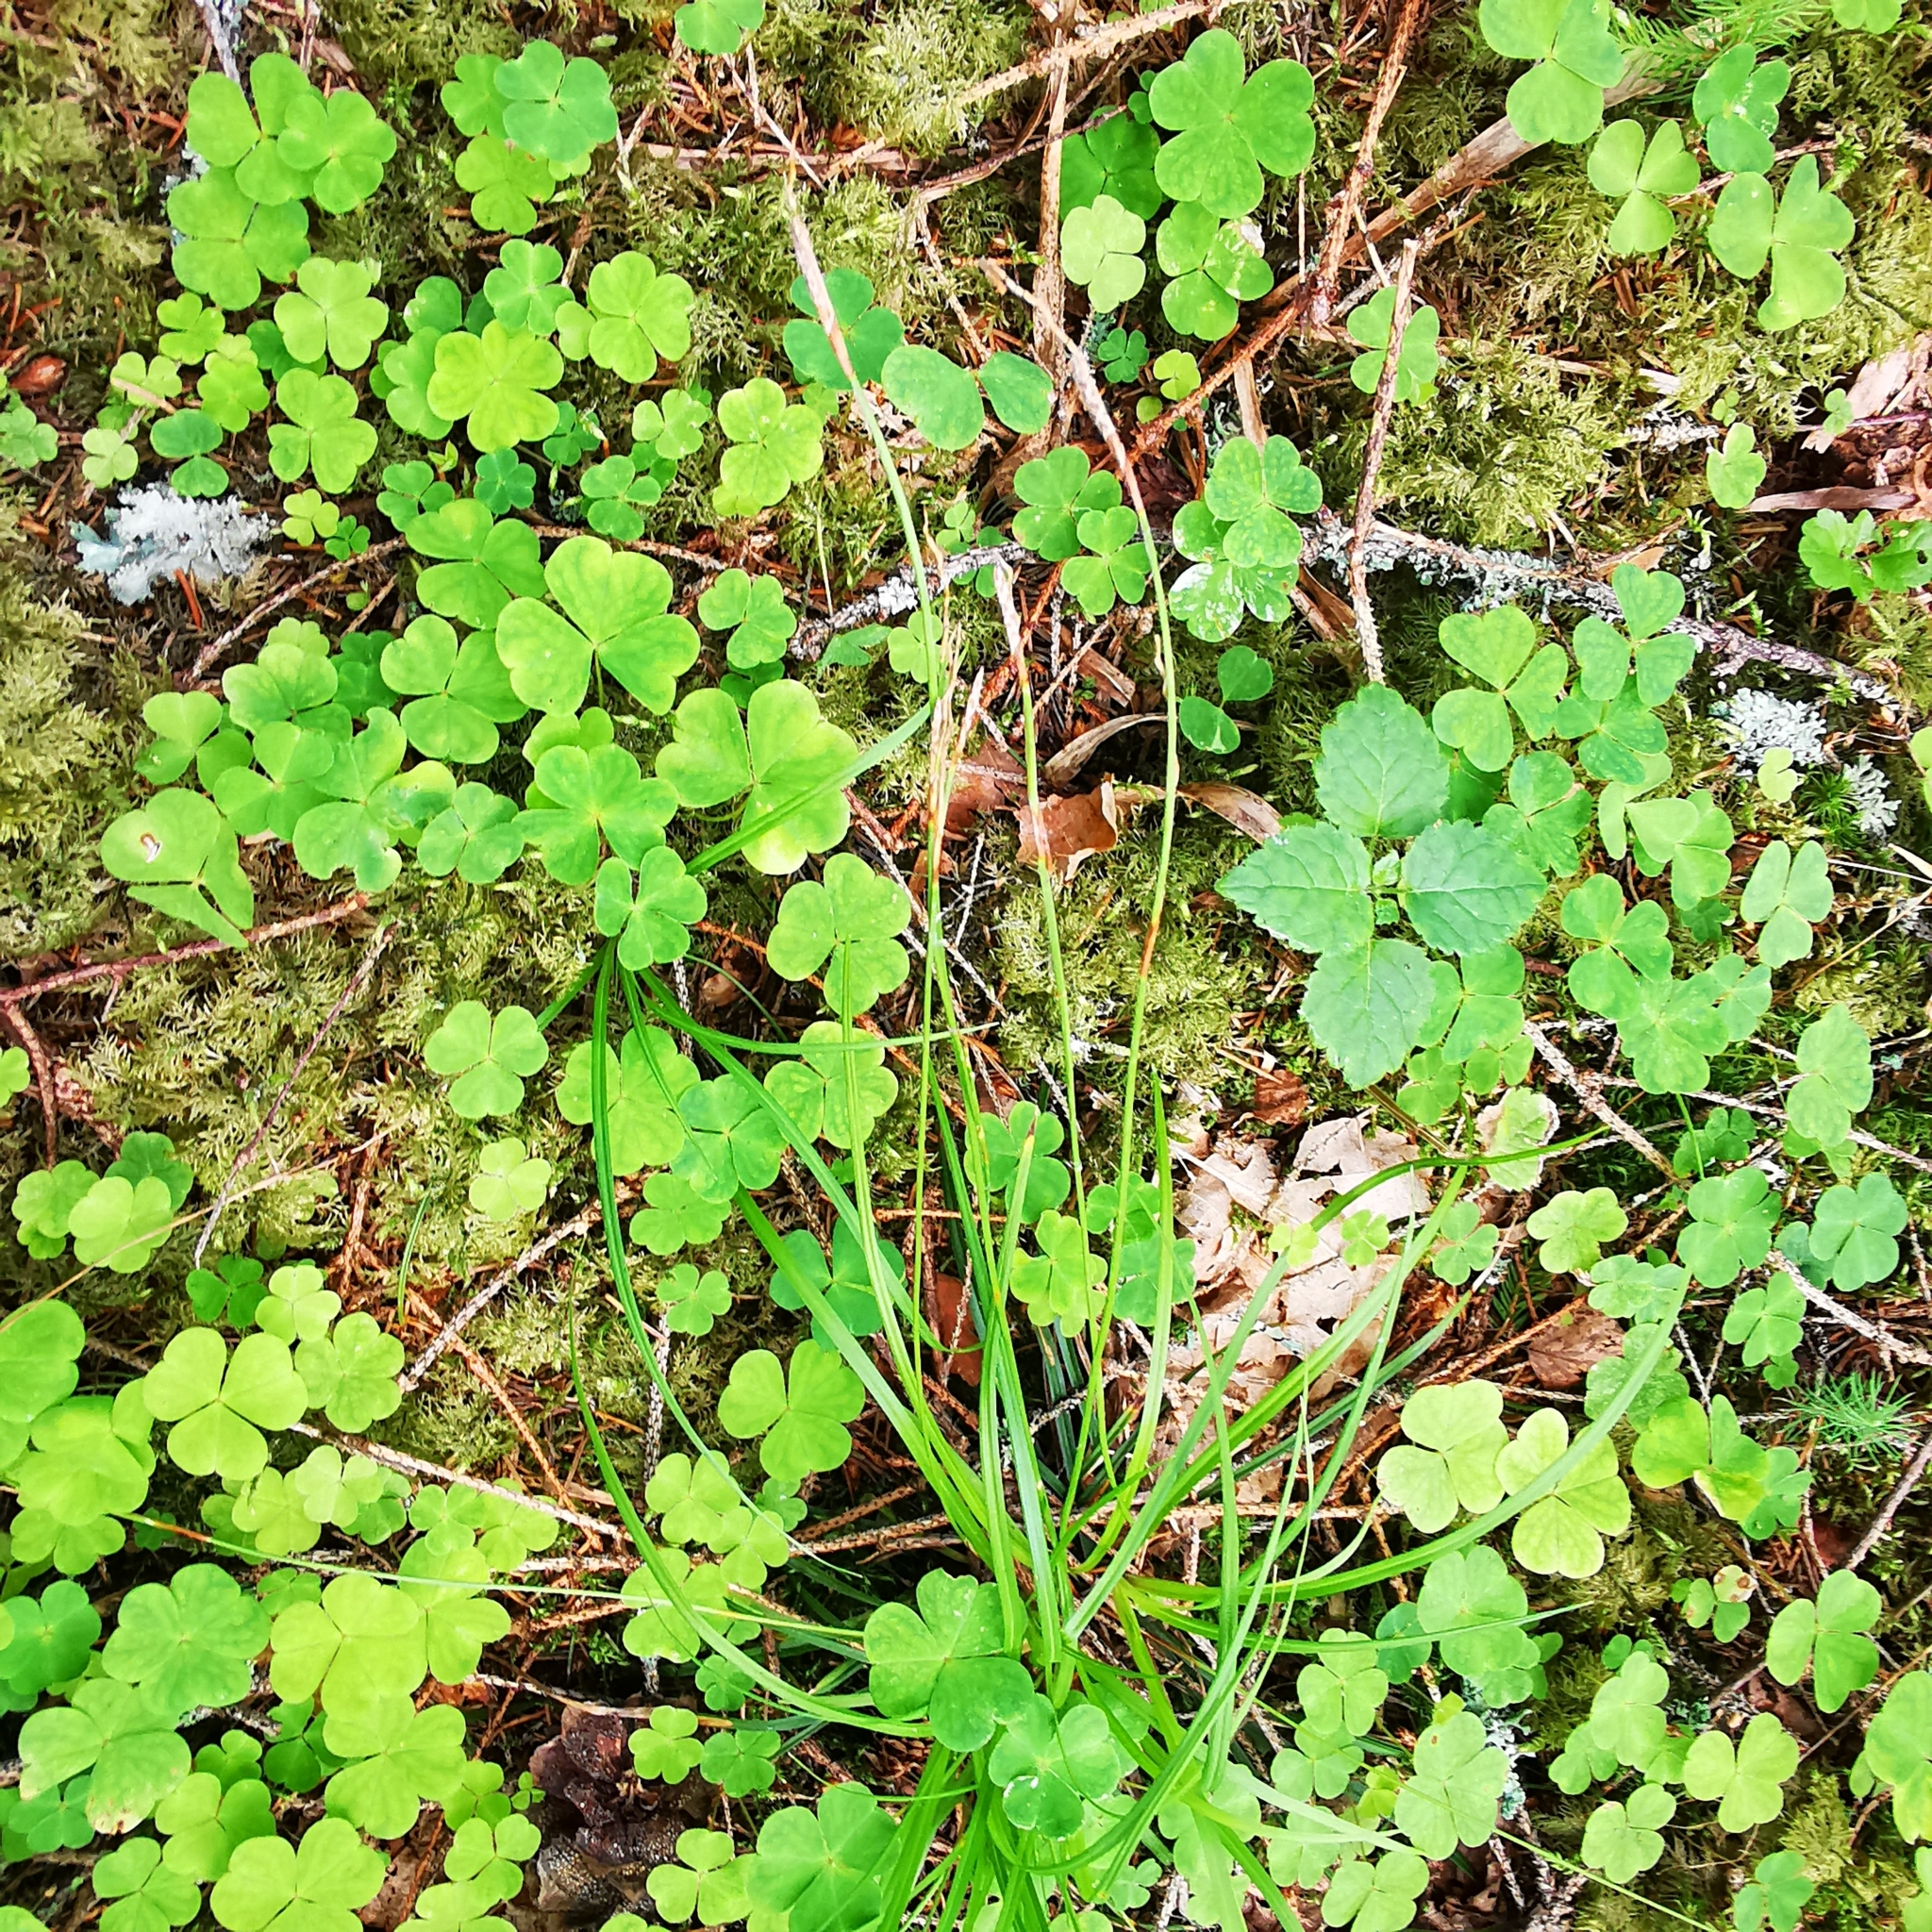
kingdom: Plantae
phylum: Tracheophyta
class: Liliopsida
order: Poales
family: Cyperaceae
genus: Carex
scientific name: Carex digitata
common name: Fingered sedge
